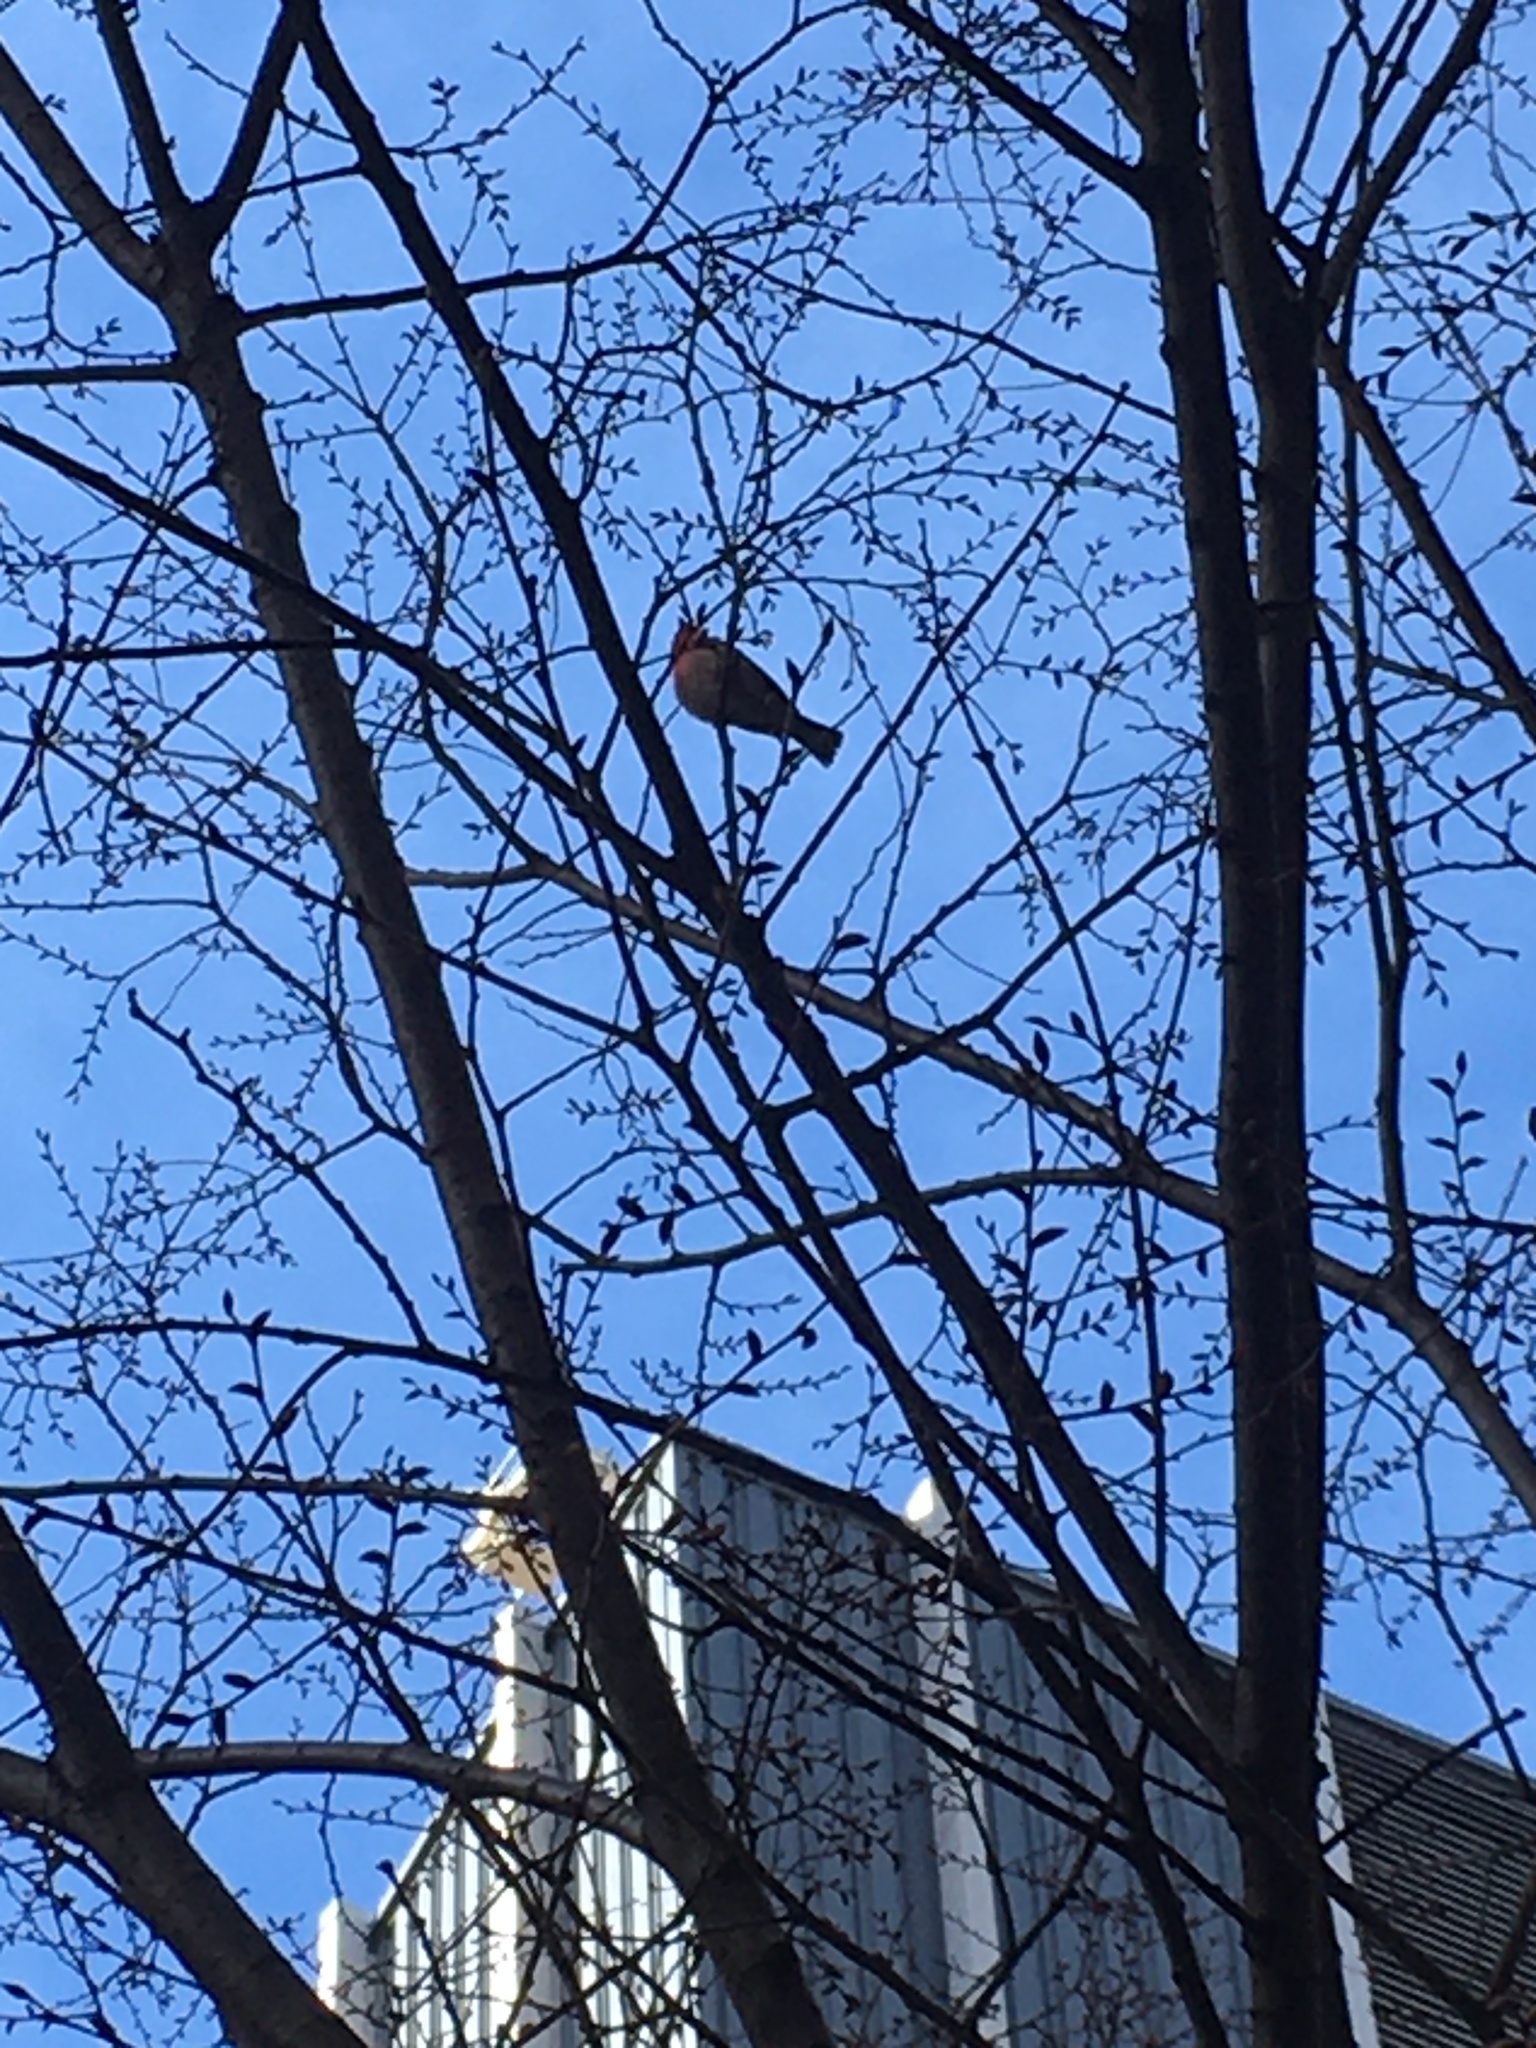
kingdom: Animalia
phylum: Chordata
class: Aves
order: Passeriformes
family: Fringillidae
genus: Haemorhous
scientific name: Haemorhous mexicanus
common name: House finch
